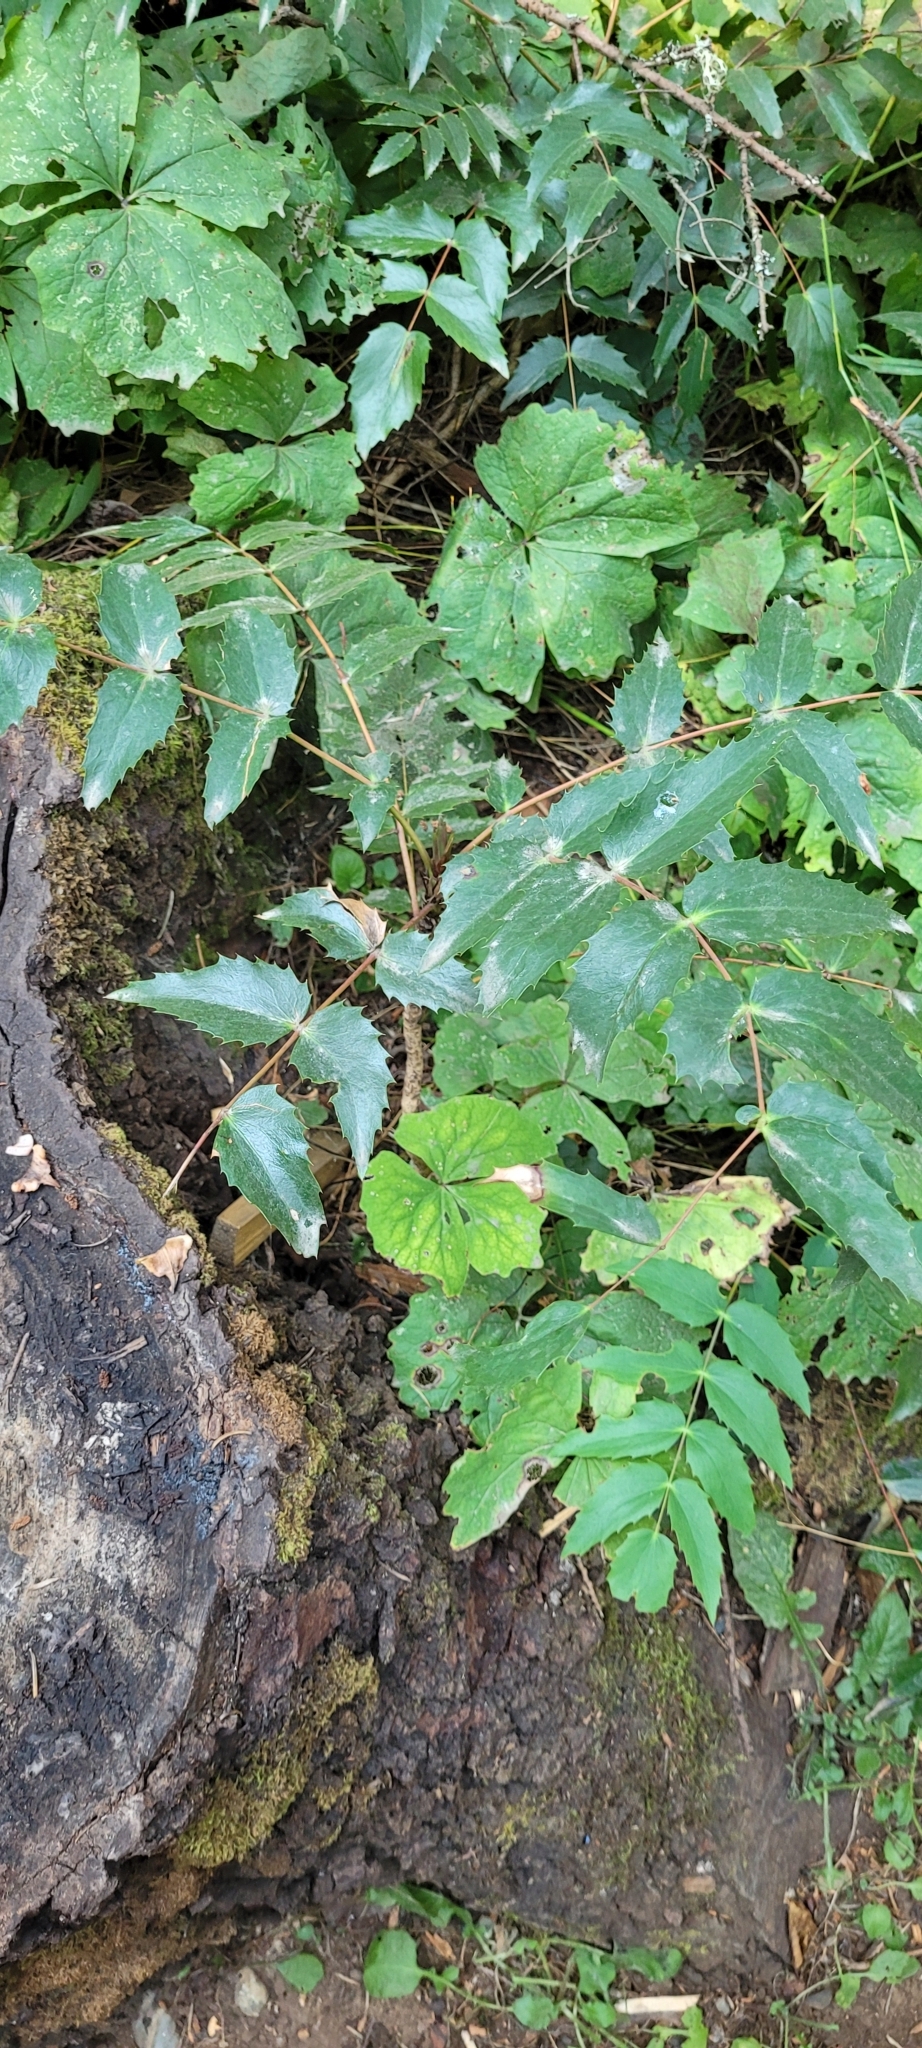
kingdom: Plantae
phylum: Tracheophyta
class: Magnoliopsida
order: Ranunculales
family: Berberidaceae
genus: Mahonia
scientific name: Mahonia nervosa
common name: Cascade oregon-grape
